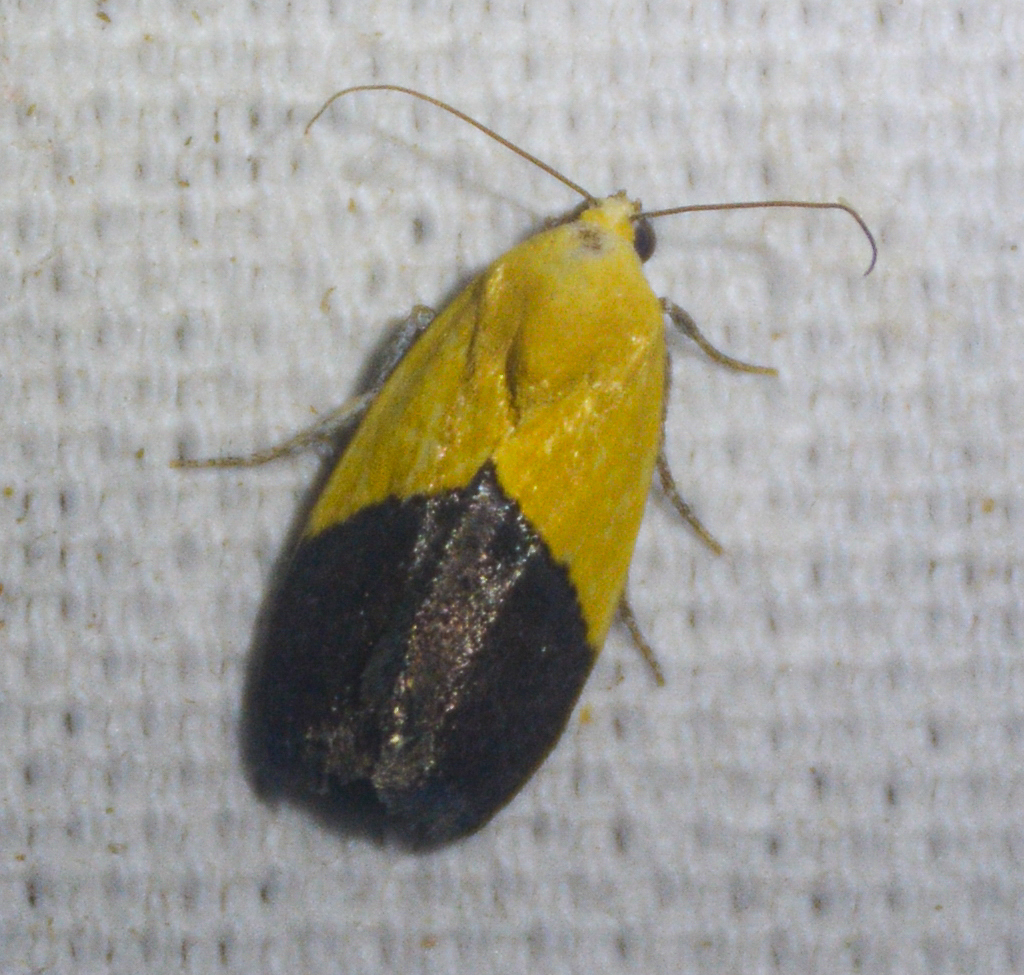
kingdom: Animalia
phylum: Arthropoda
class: Insecta
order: Lepidoptera
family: Noctuidae
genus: Acontia
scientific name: Acontia semiflava
